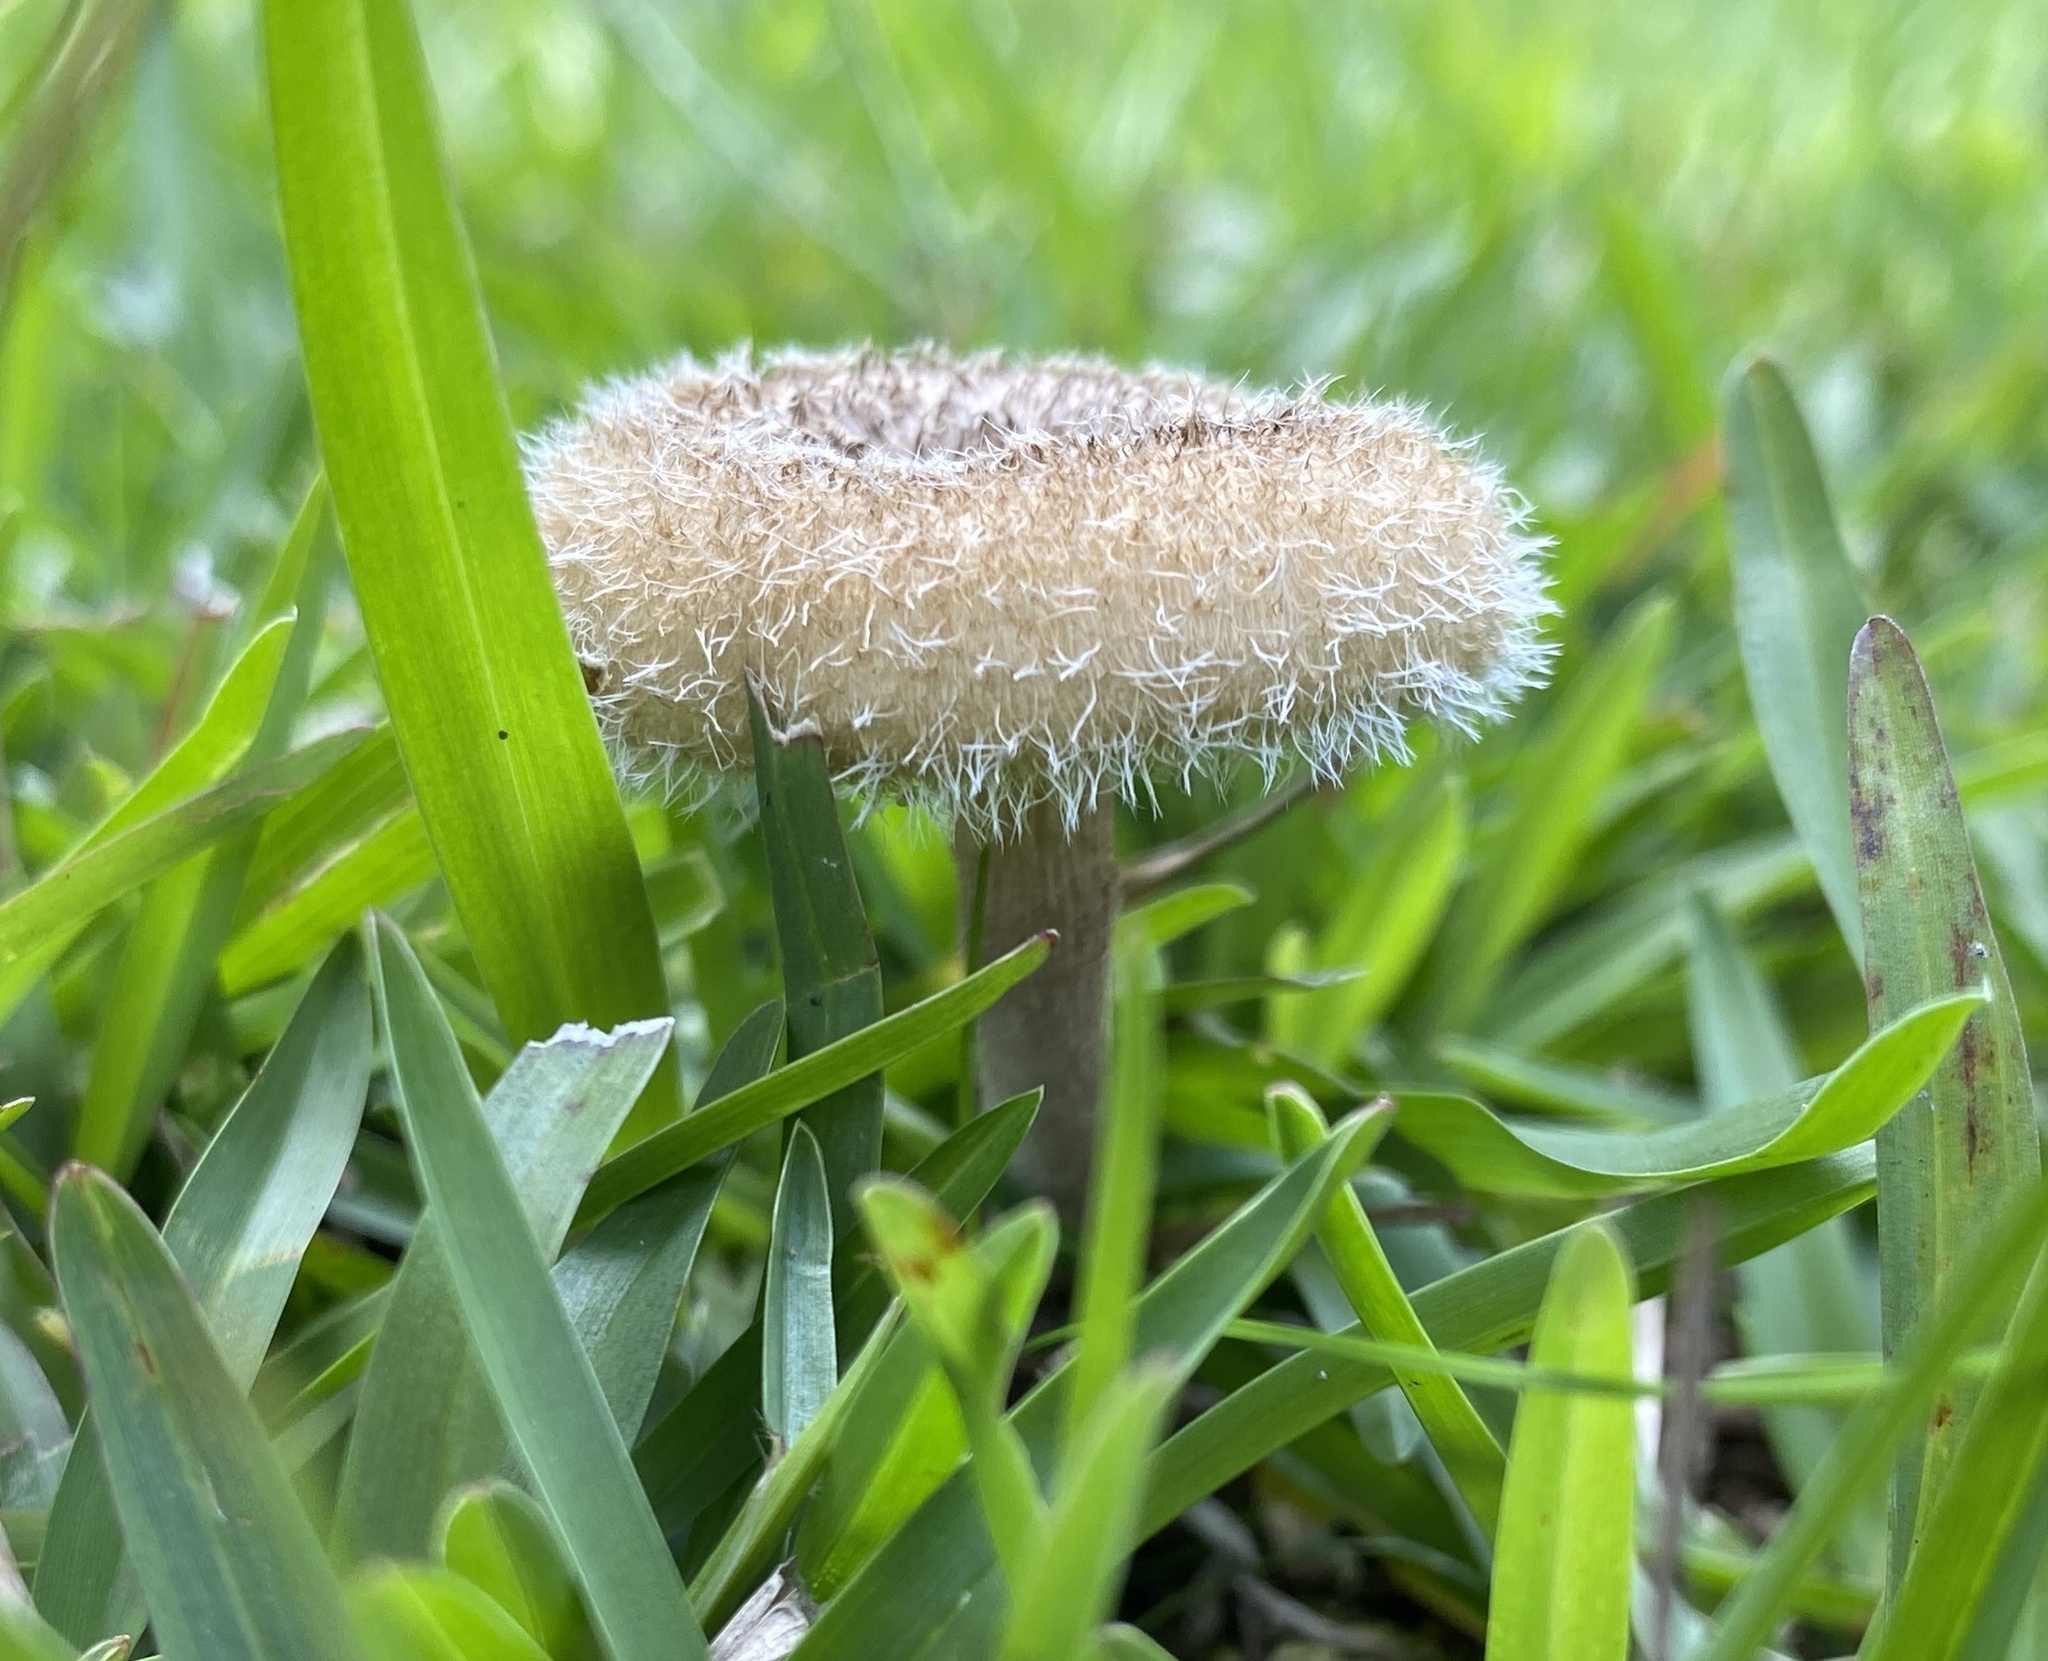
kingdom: Fungi
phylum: Basidiomycota
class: Agaricomycetes
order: Polyporales
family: Polyporaceae
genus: Lentinus
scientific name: Lentinus crinitus
